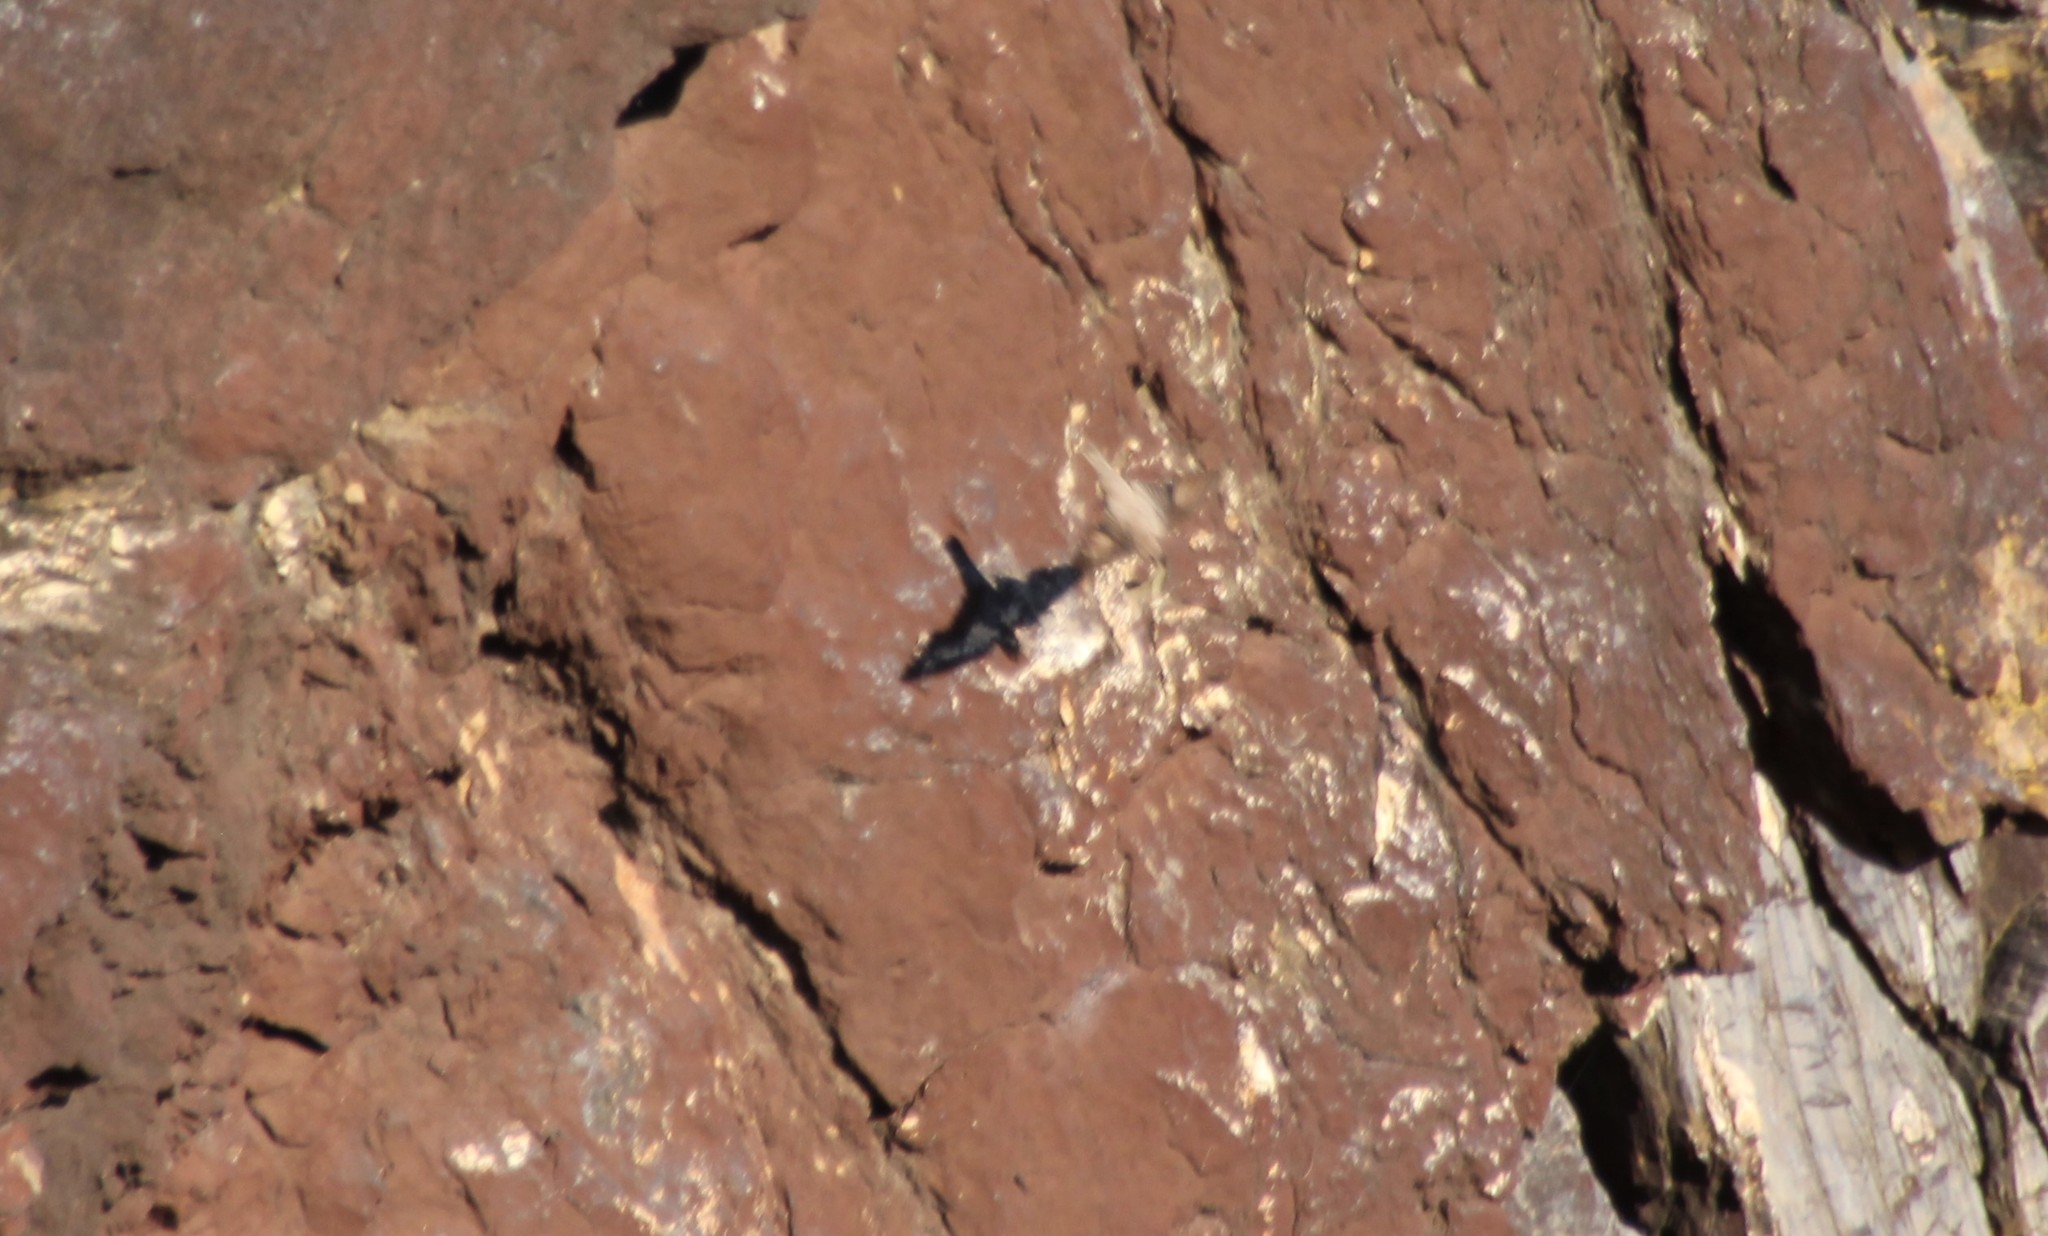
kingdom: Animalia
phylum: Chordata
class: Aves
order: Passeriformes
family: Hirundinidae
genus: Ptyonoprogne
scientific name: Ptyonoprogne rupestris
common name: Eurasian crag martin
